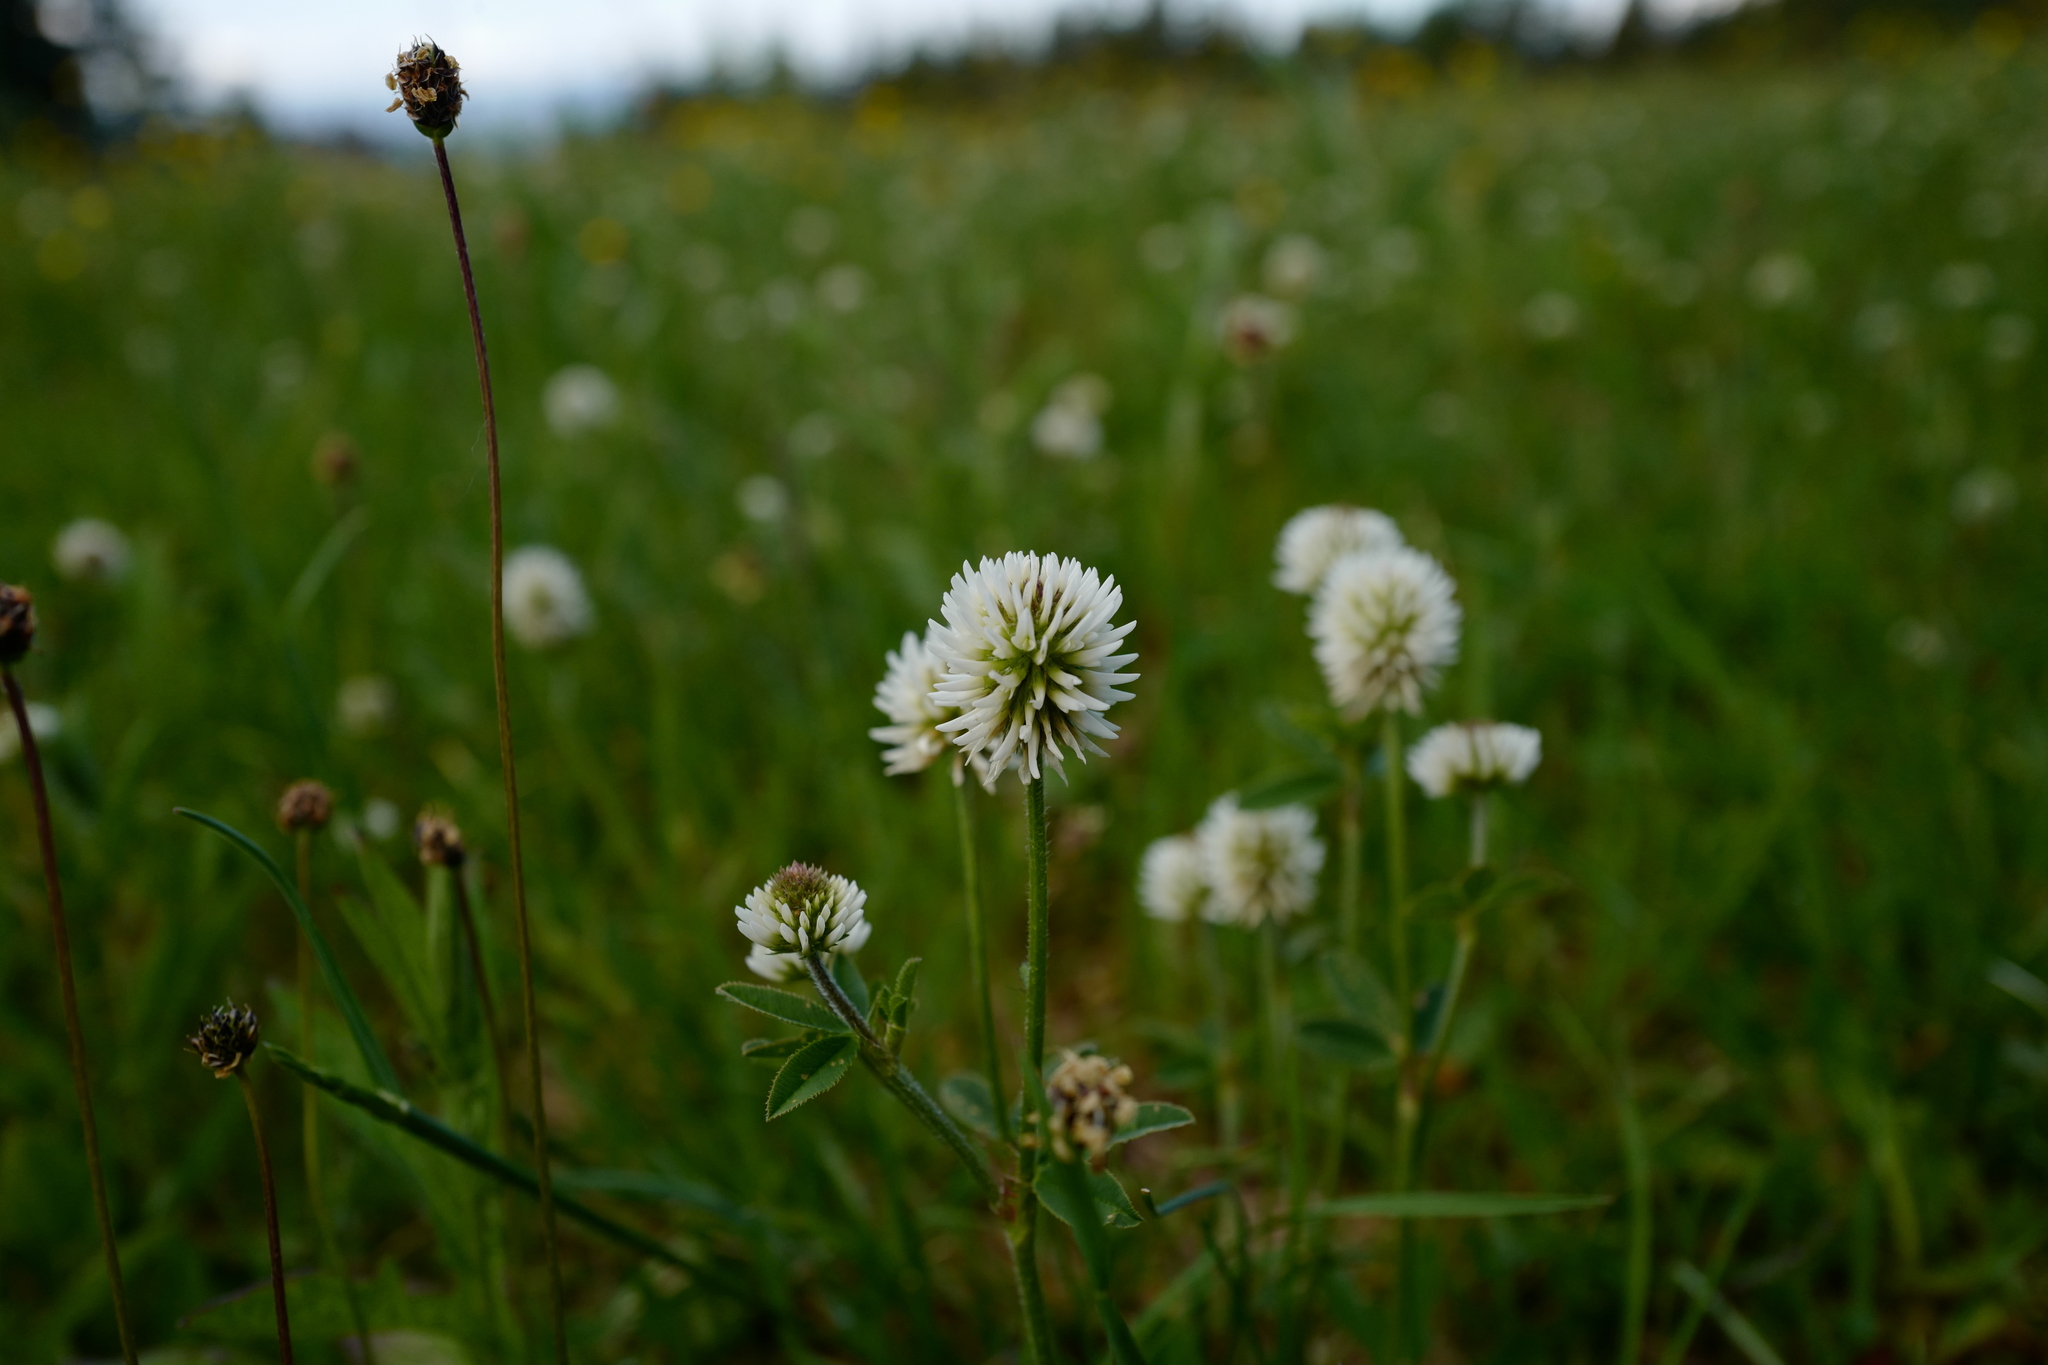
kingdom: Plantae
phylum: Tracheophyta
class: Magnoliopsida
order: Fabales
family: Fabaceae
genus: Trifolium
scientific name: Trifolium montanum
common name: Mountain clover
